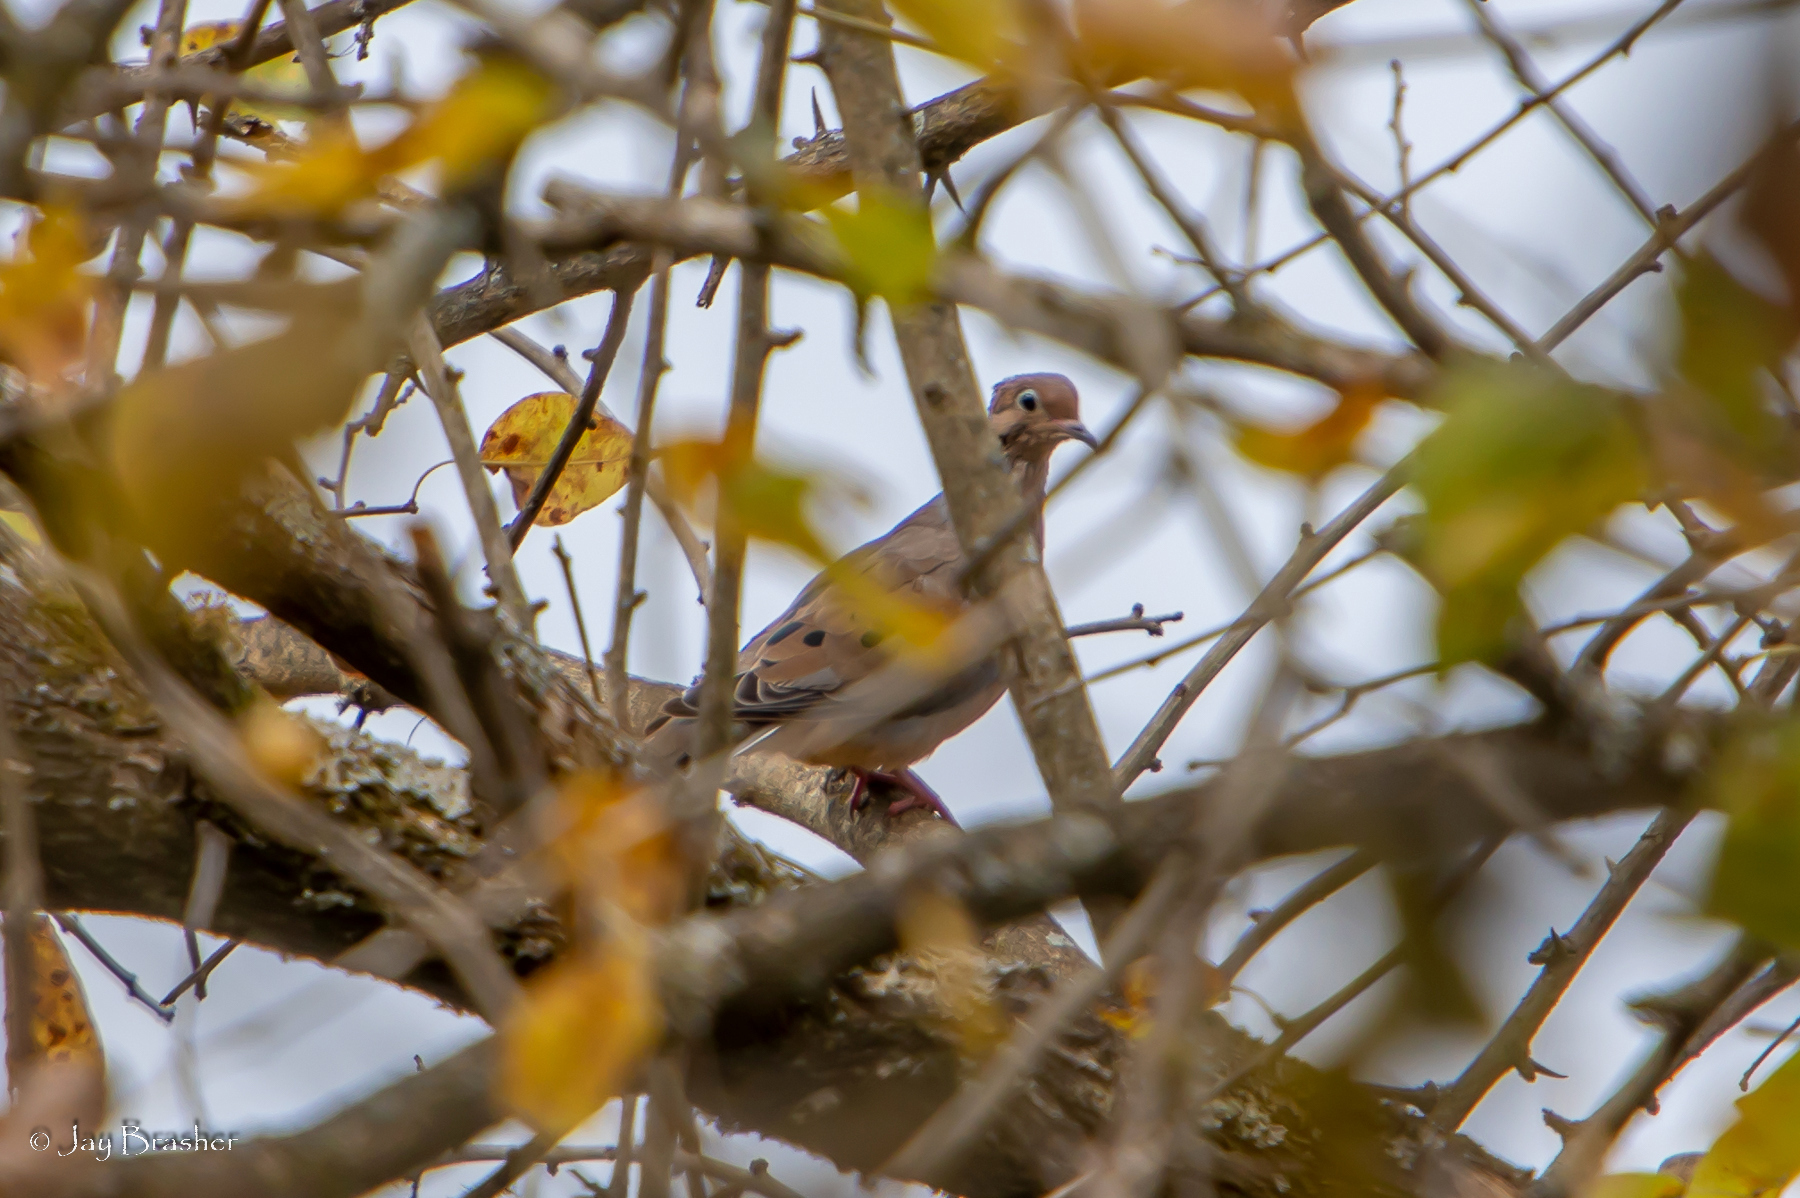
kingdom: Animalia
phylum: Chordata
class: Aves
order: Columbiformes
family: Columbidae
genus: Zenaida
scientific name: Zenaida macroura
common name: Mourning dove
